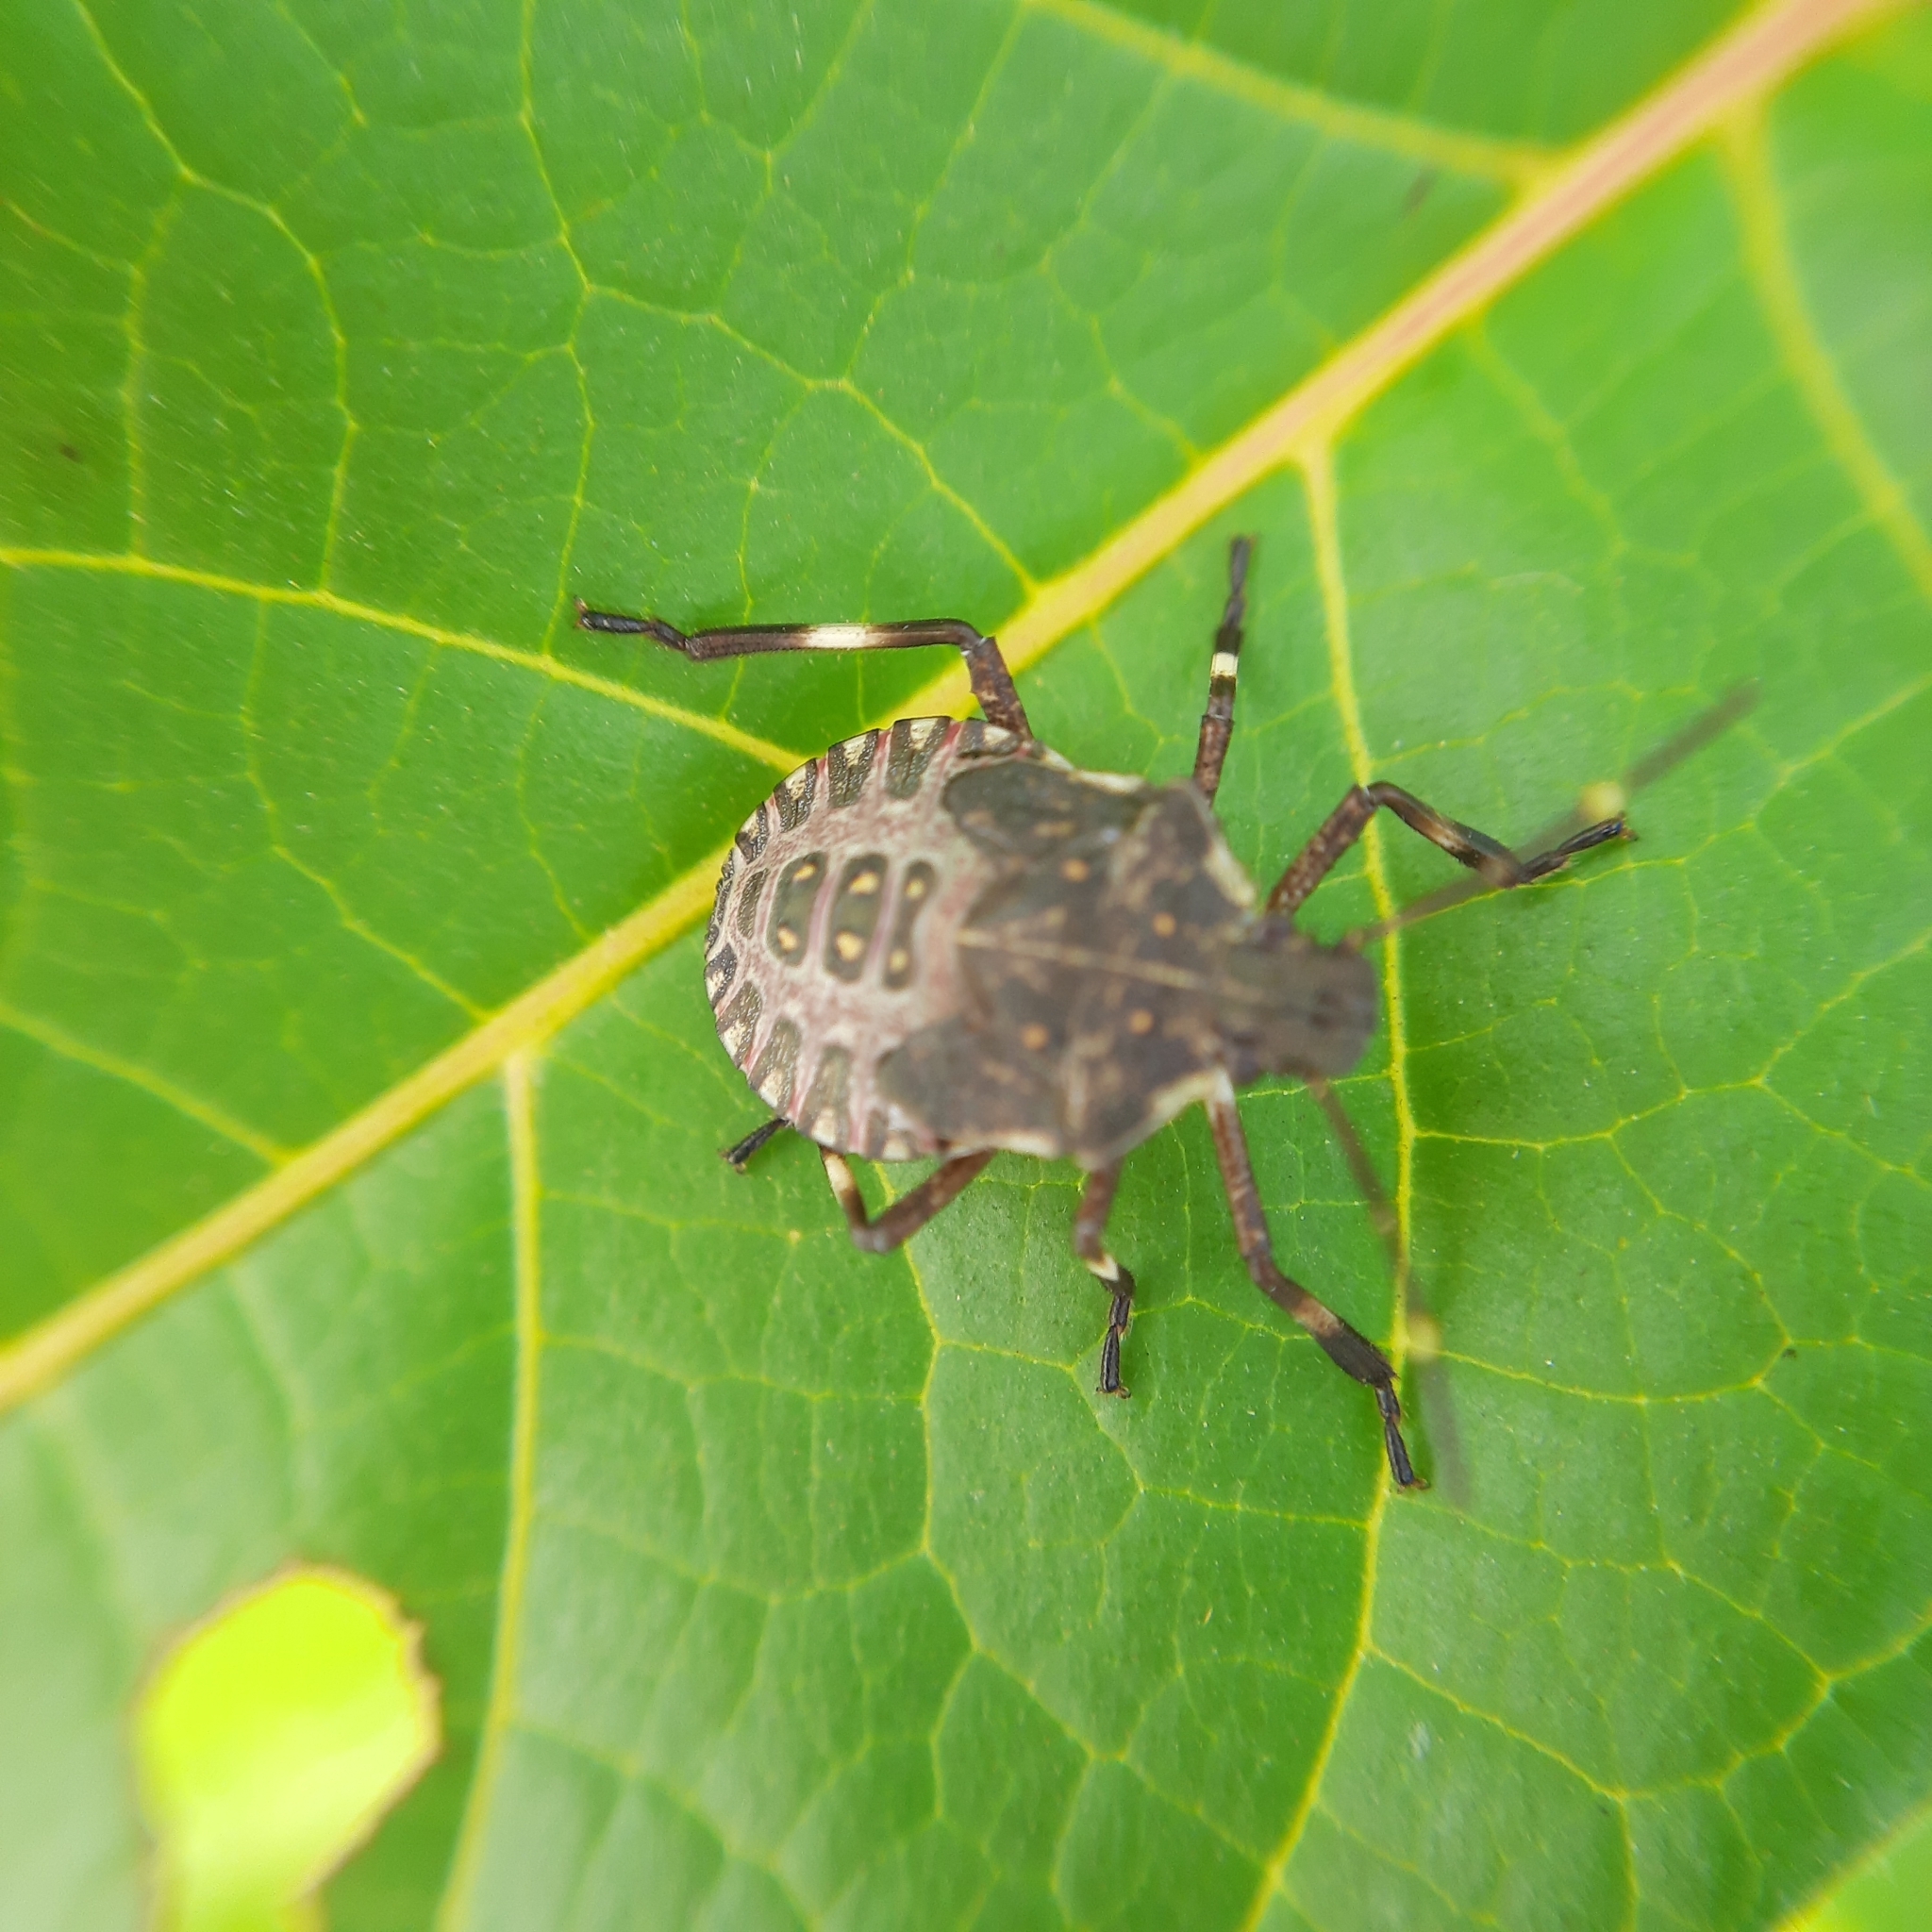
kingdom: Animalia
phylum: Arthropoda
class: Insecta
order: Hemiptera
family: Pentatomidae
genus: Halyomorpha
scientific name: Halyomorpha halys
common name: Brown marmorated stink bug
